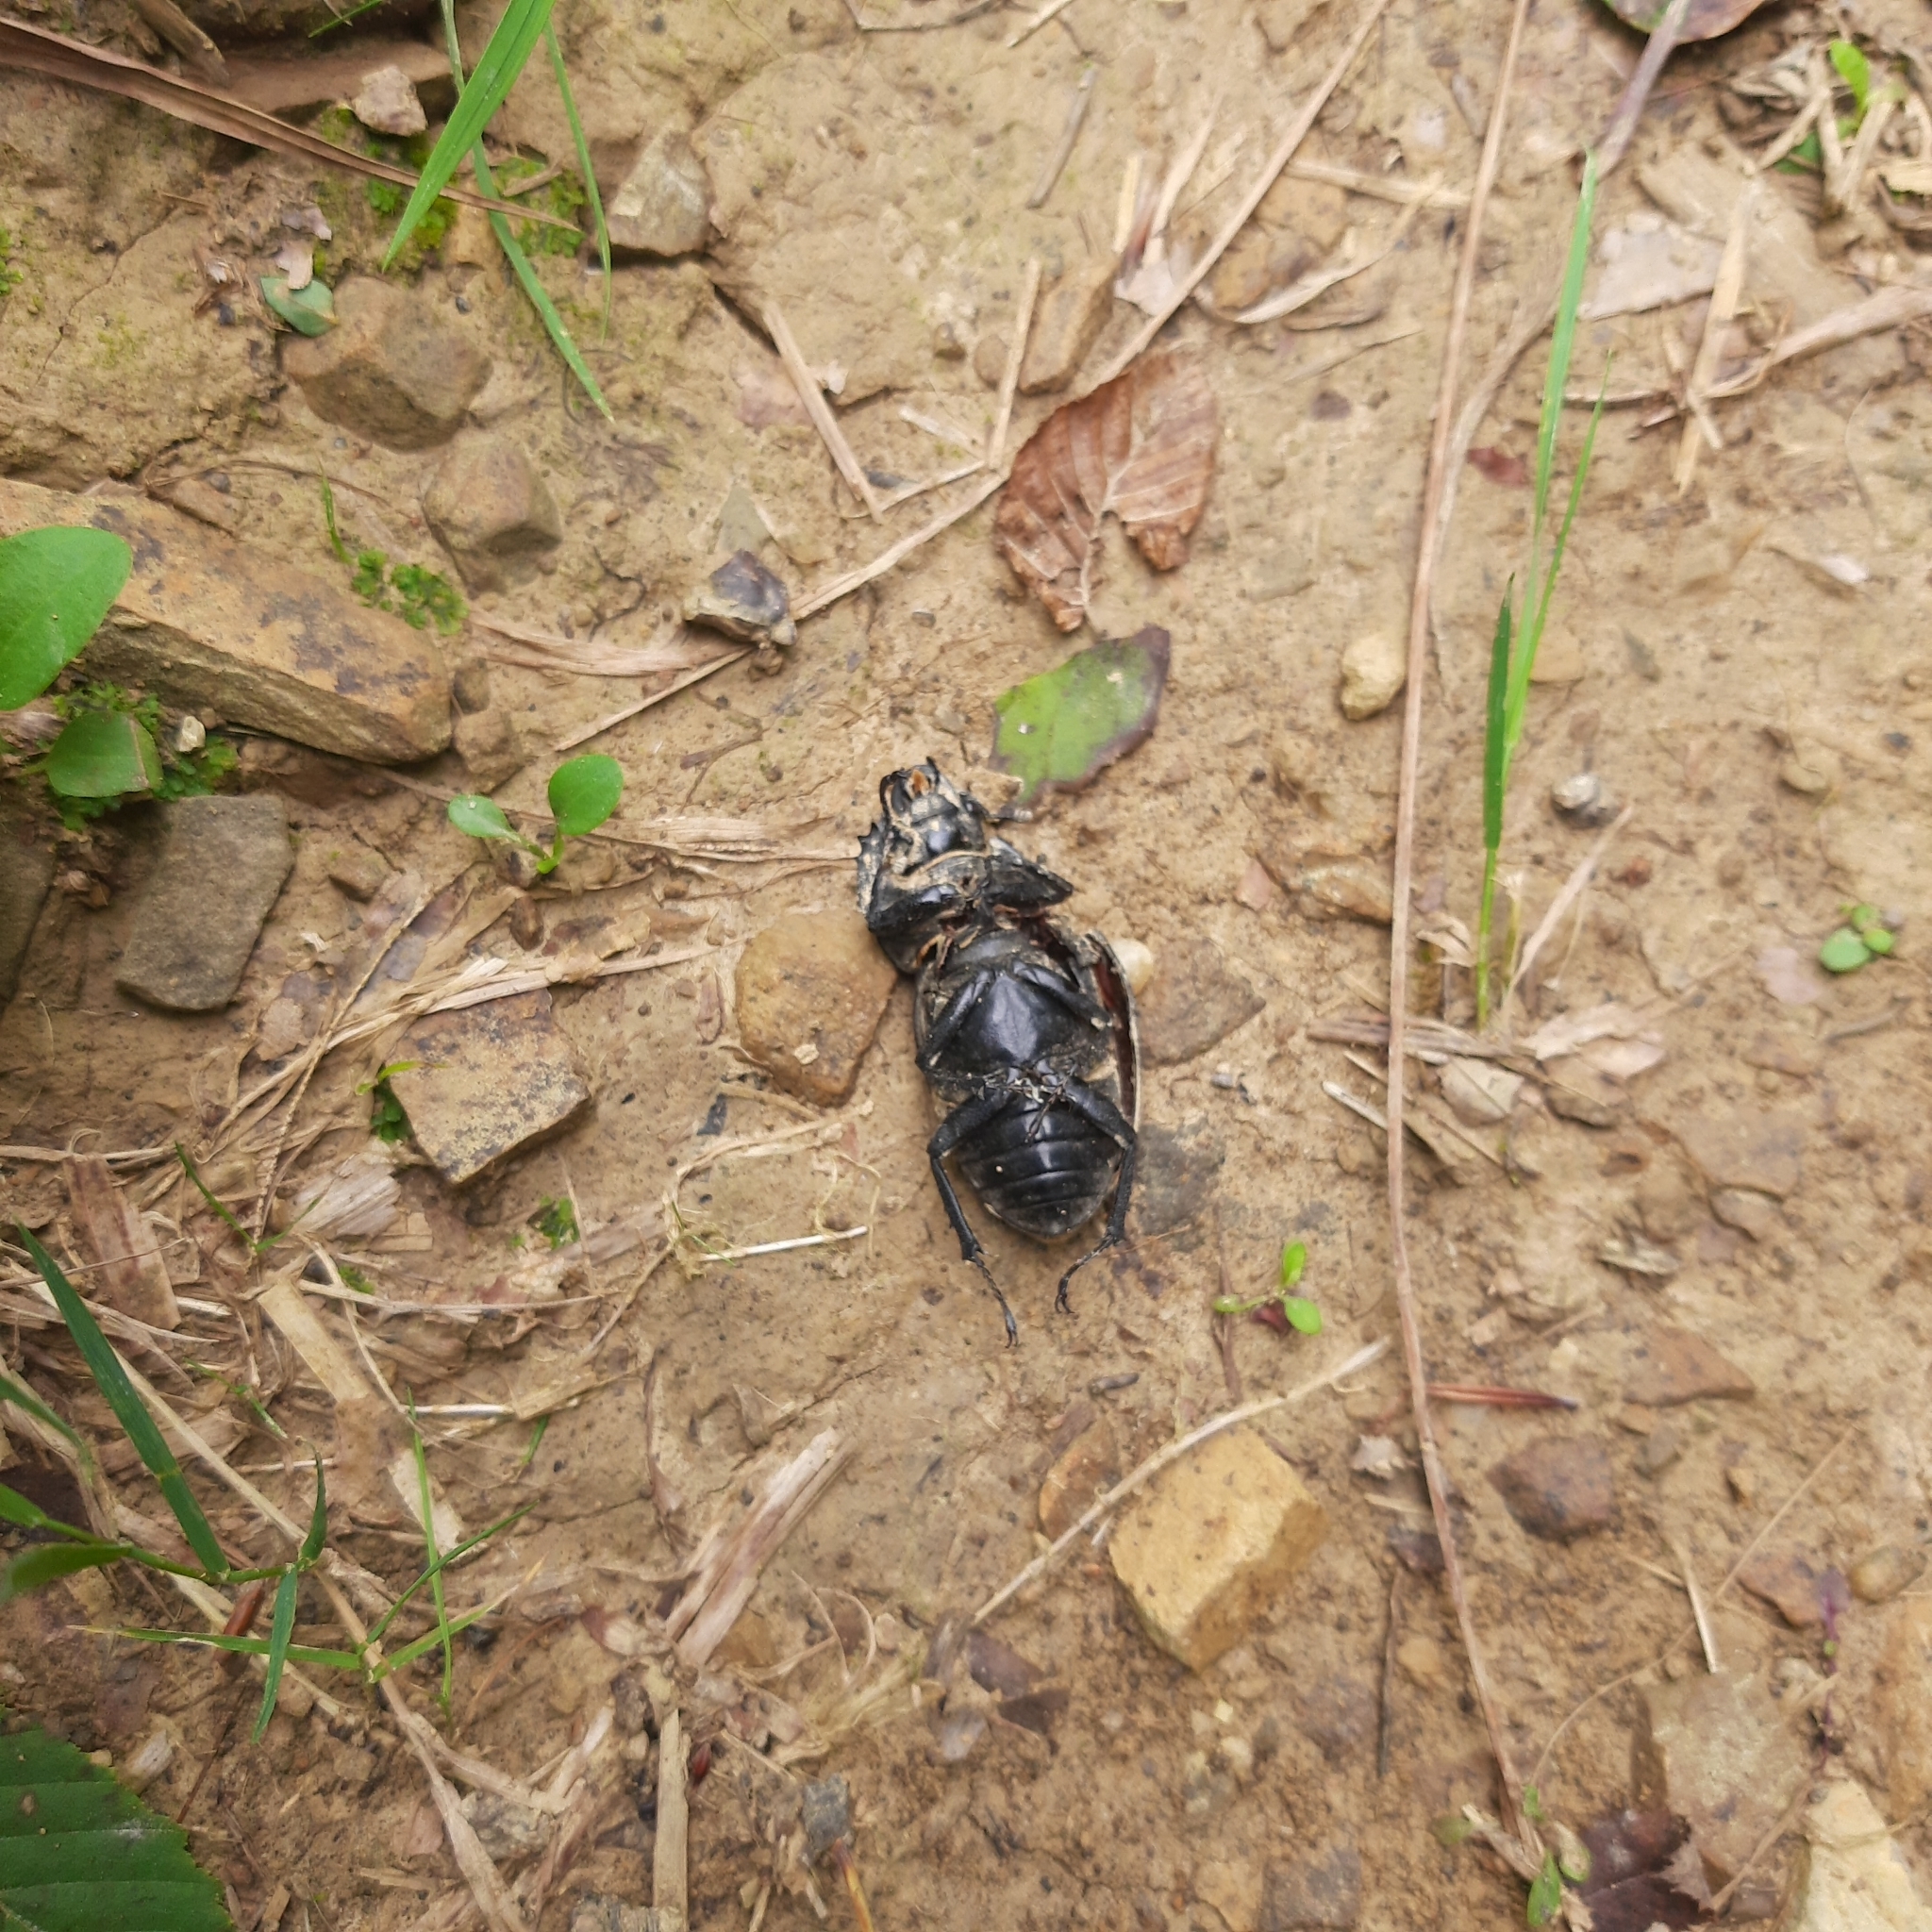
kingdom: Animalia
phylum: Arthropoda
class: Insecta
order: Coleoptera
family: Lucanidae
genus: Lucanus
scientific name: Lucanus cervus
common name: Stag beetle
